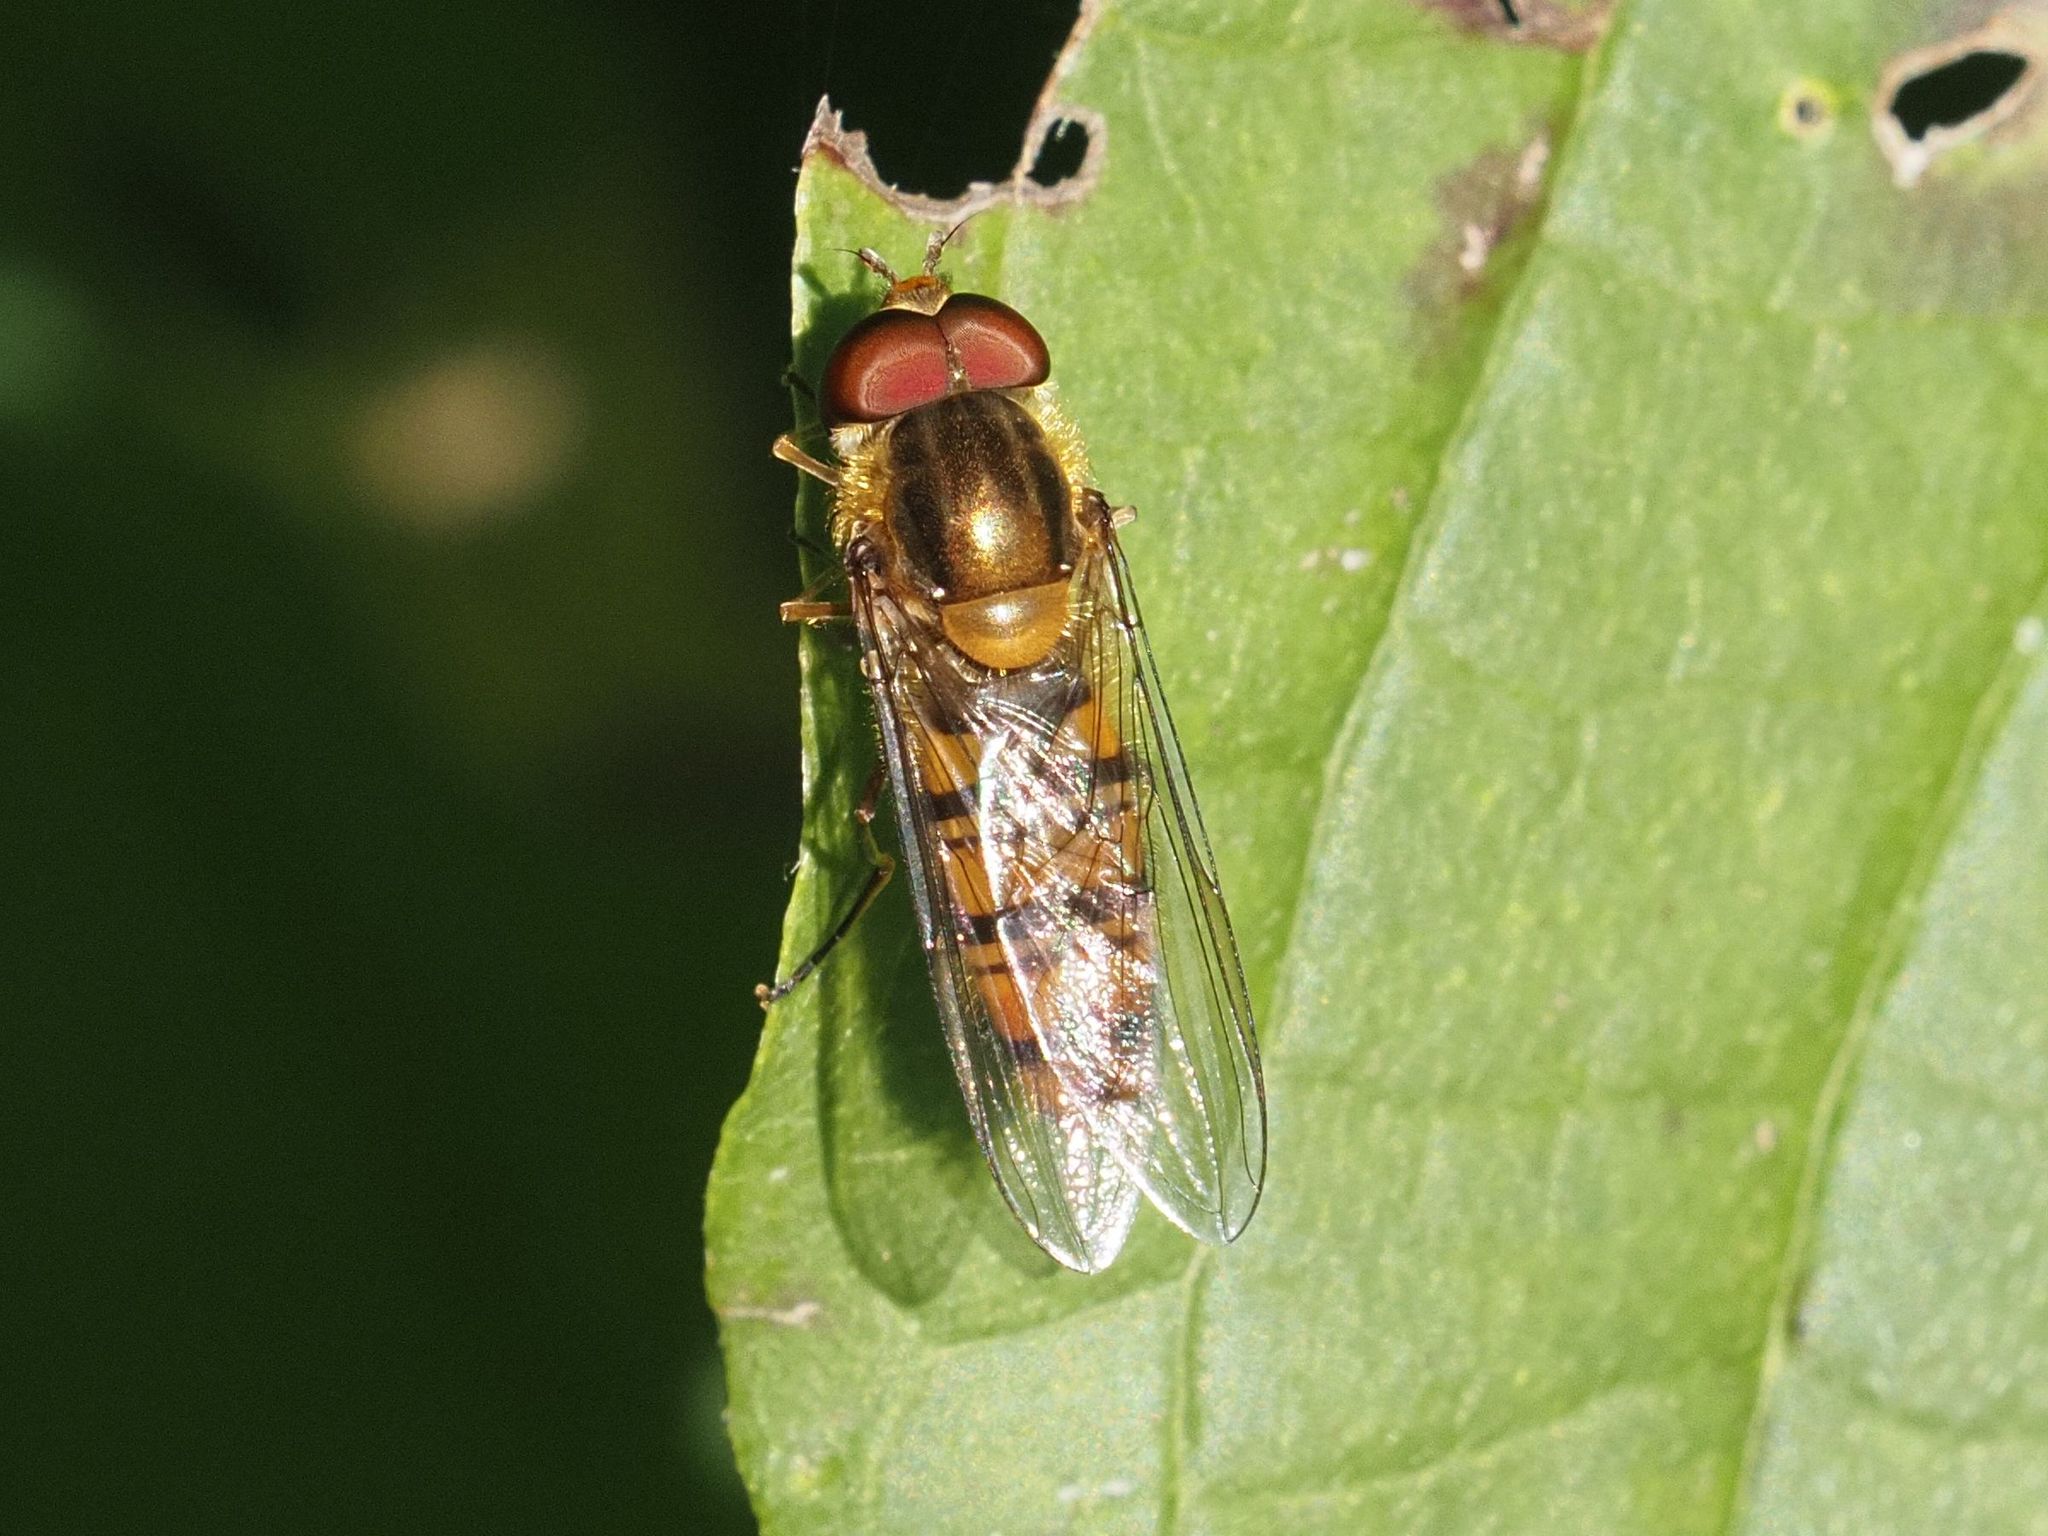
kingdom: Animalia
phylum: Arthropoda
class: Insecta
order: Diptera
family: Syrphidae
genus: Episyrphus
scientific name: Episyrphus balteatus
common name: Marmalade hoverfly
